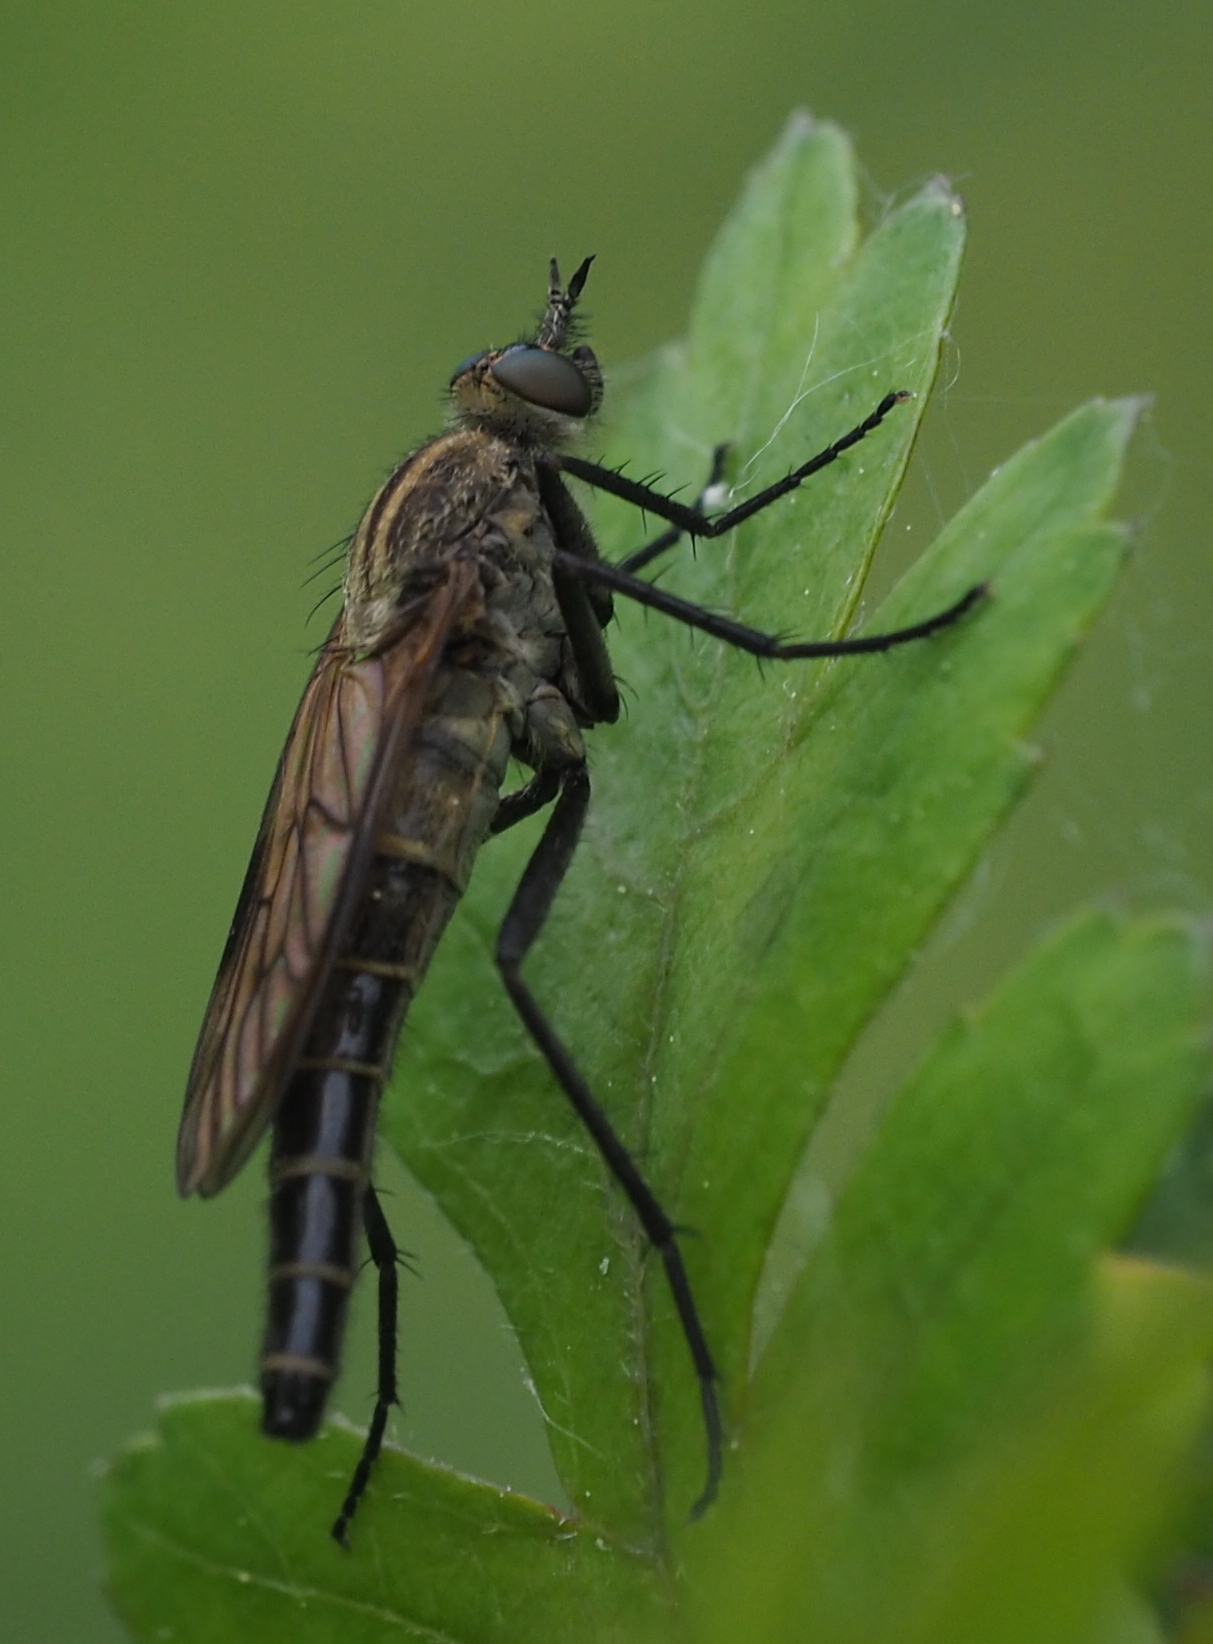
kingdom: Animalia
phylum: Arthropoda
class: Insecta
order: Diptera
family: Therevidae
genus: Thereva
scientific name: Thereva rustica
